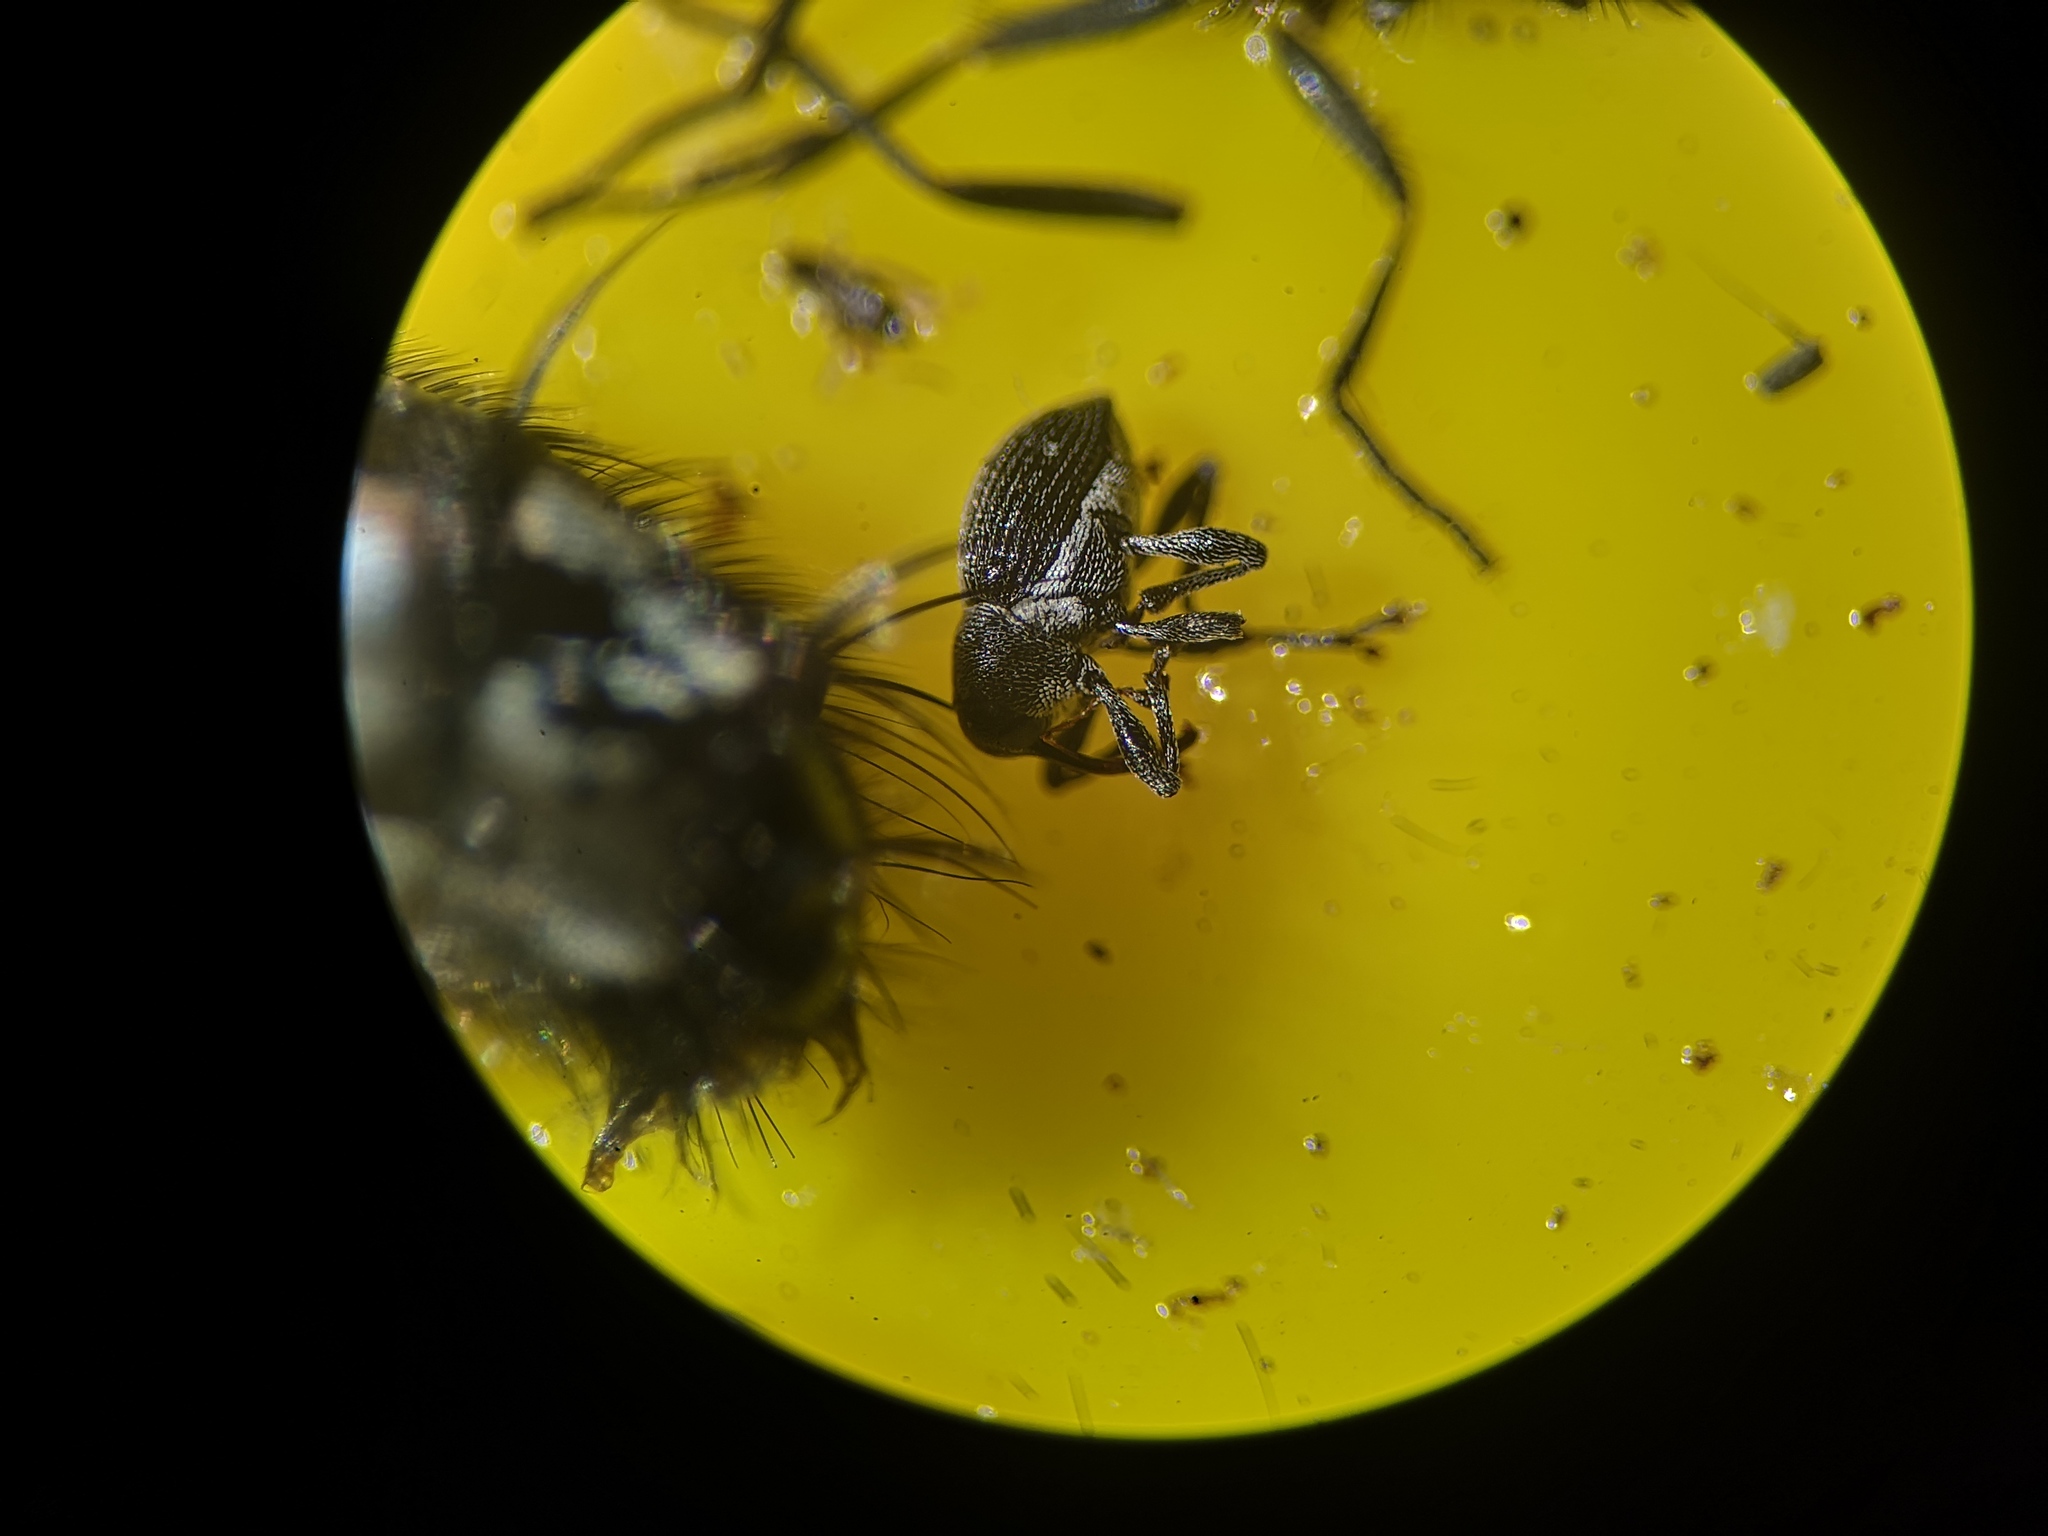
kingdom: Animalia
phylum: Arthropoda
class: Insecta
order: Coleoptera
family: Curculionidae
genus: Archarius
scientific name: Archarius pyrrhoceras
